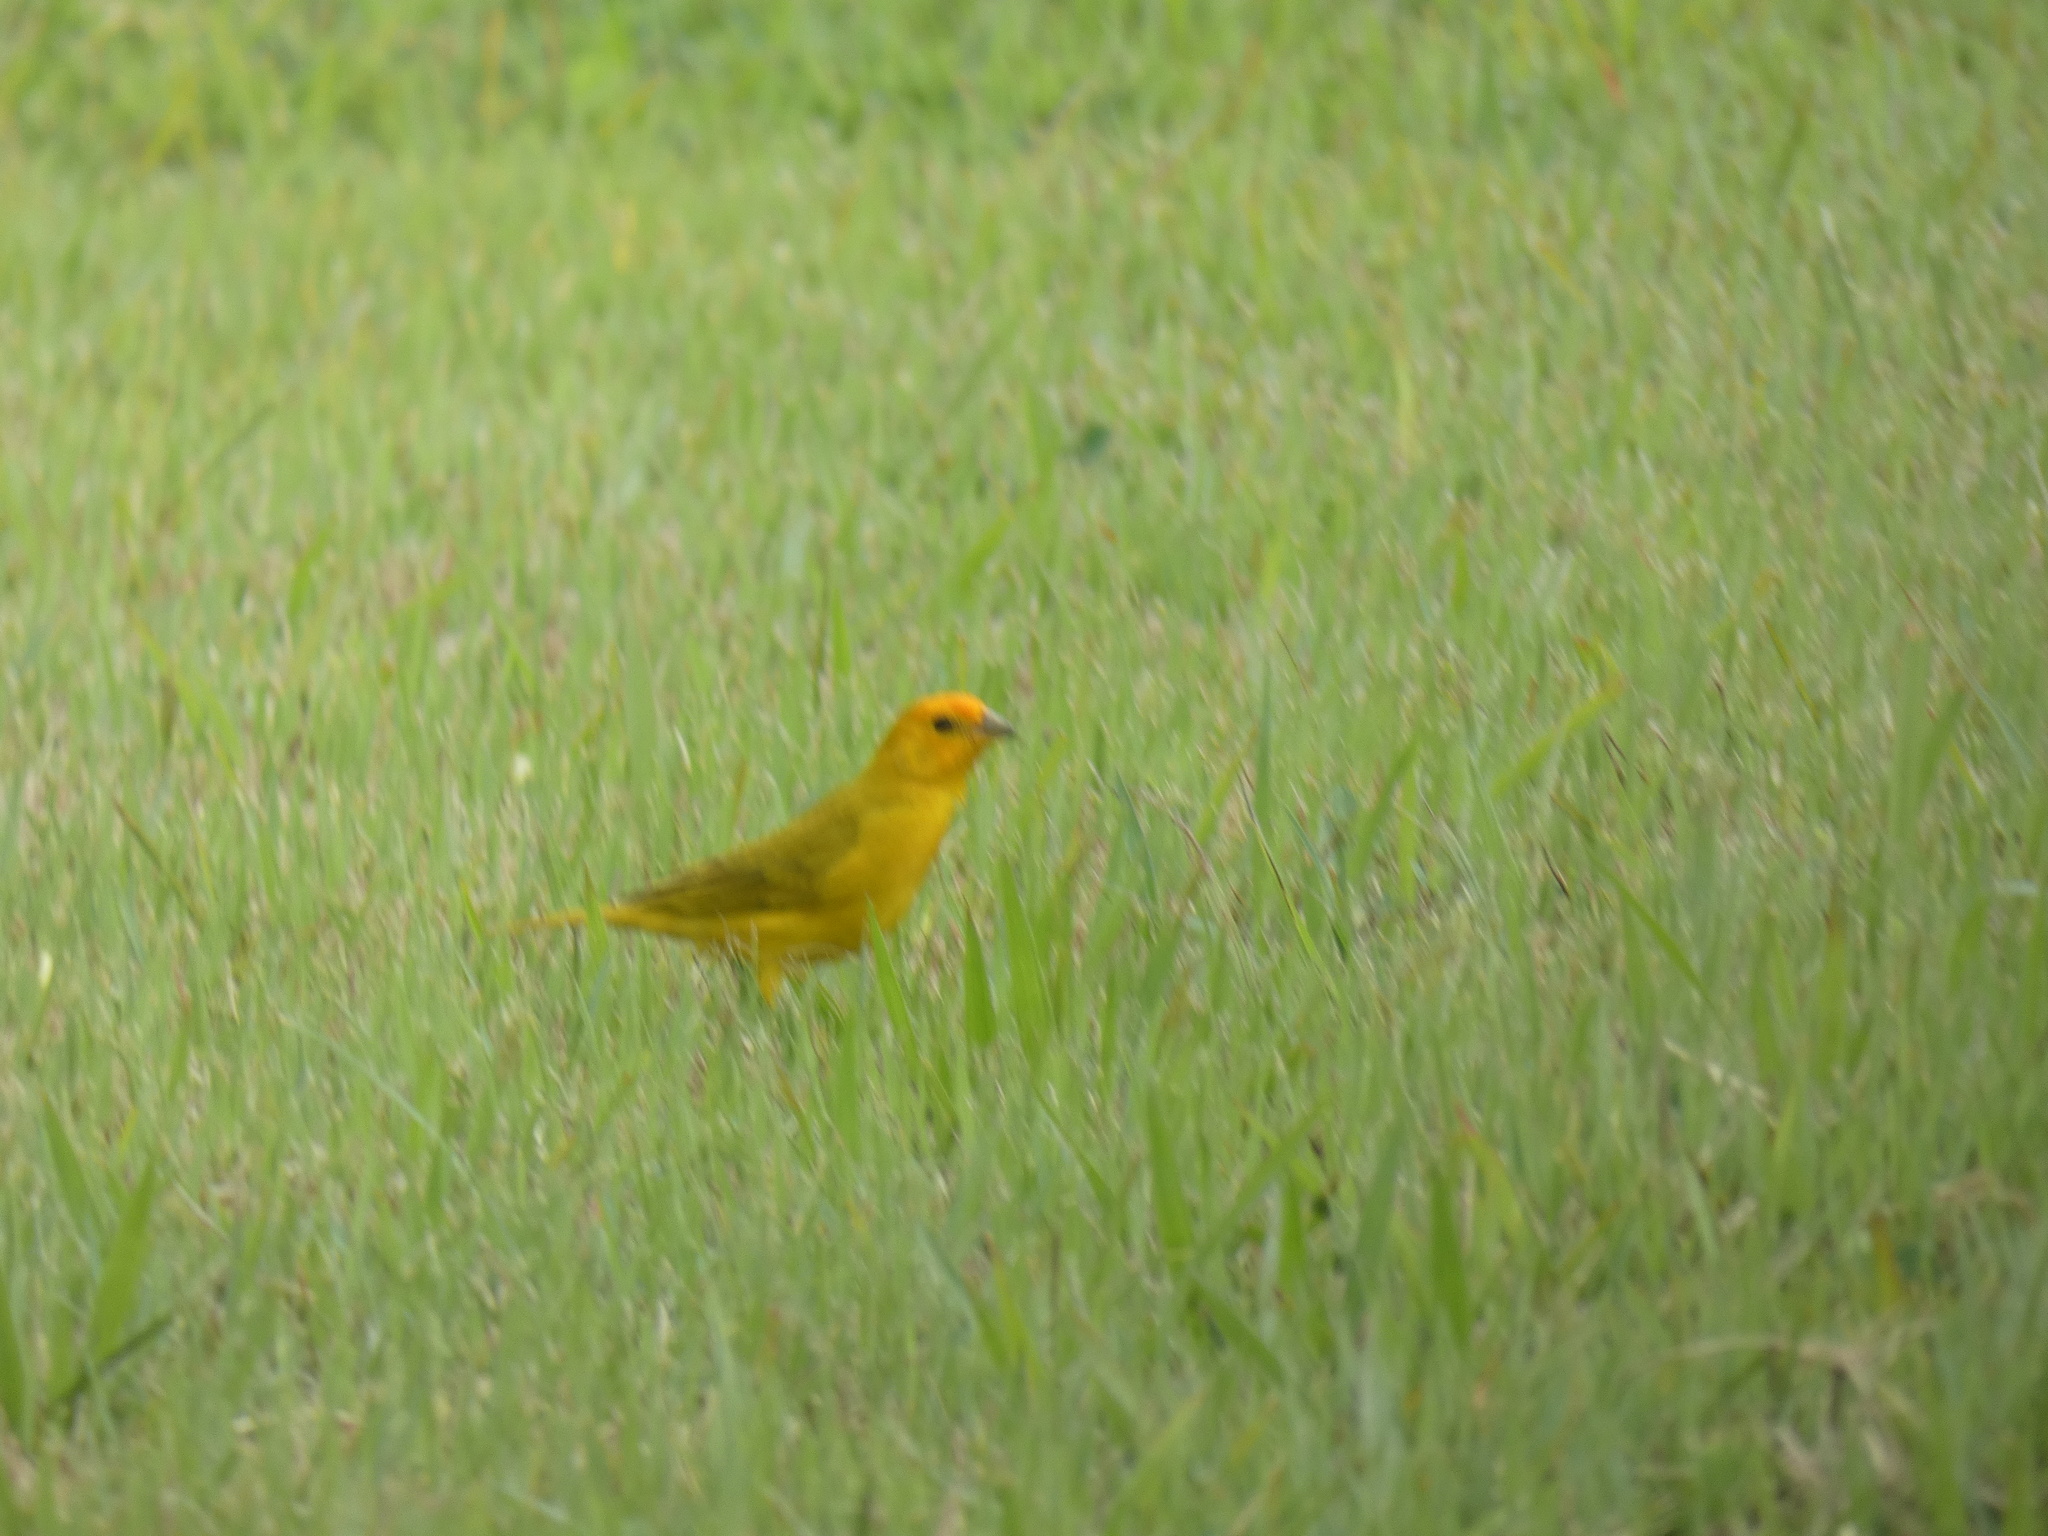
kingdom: Animalia
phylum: Chordata
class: Aves
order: Passeriformes
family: Thraupidae
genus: Sicalis
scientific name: Sicalis flaveola
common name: Saffron finch
